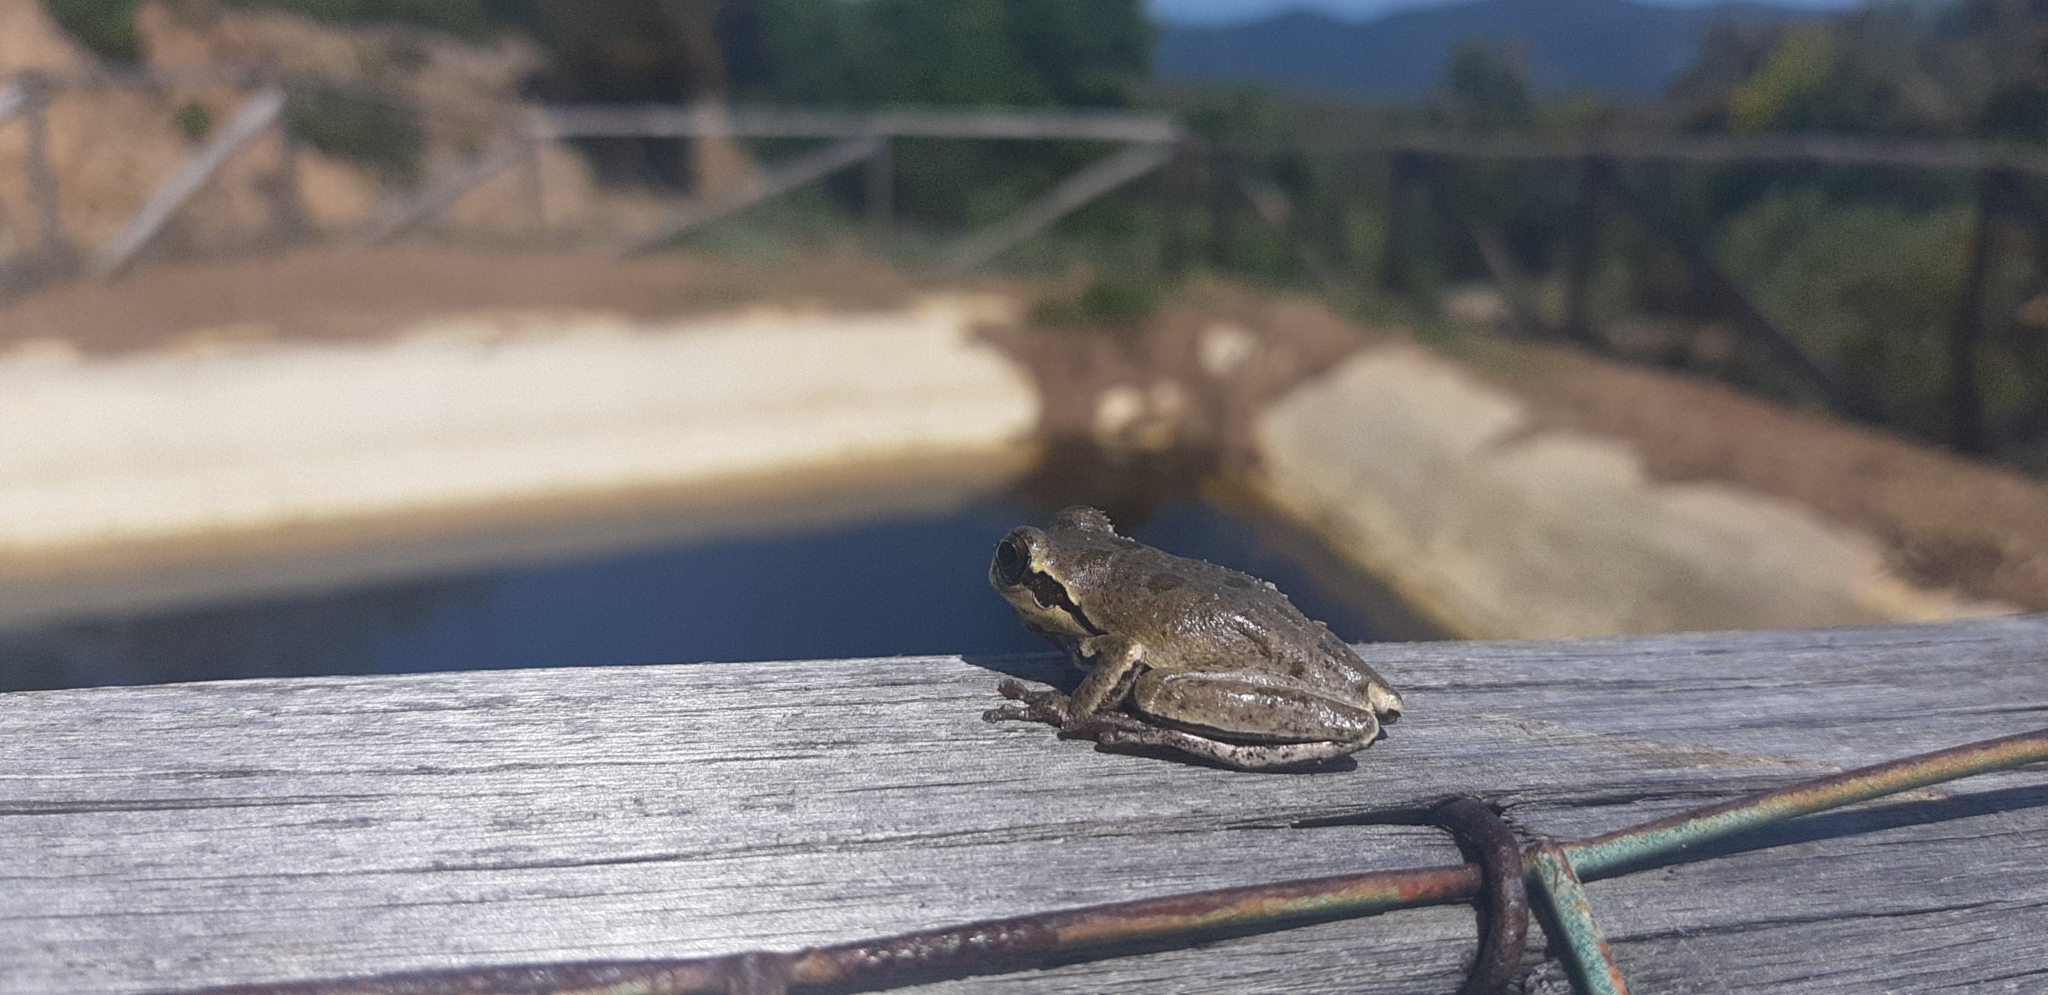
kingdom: Animalia
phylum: Chordata
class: Amphibia
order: Anura
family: Hylidae
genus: Hyla
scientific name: Hyla sarda
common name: Sardinian tree frog
